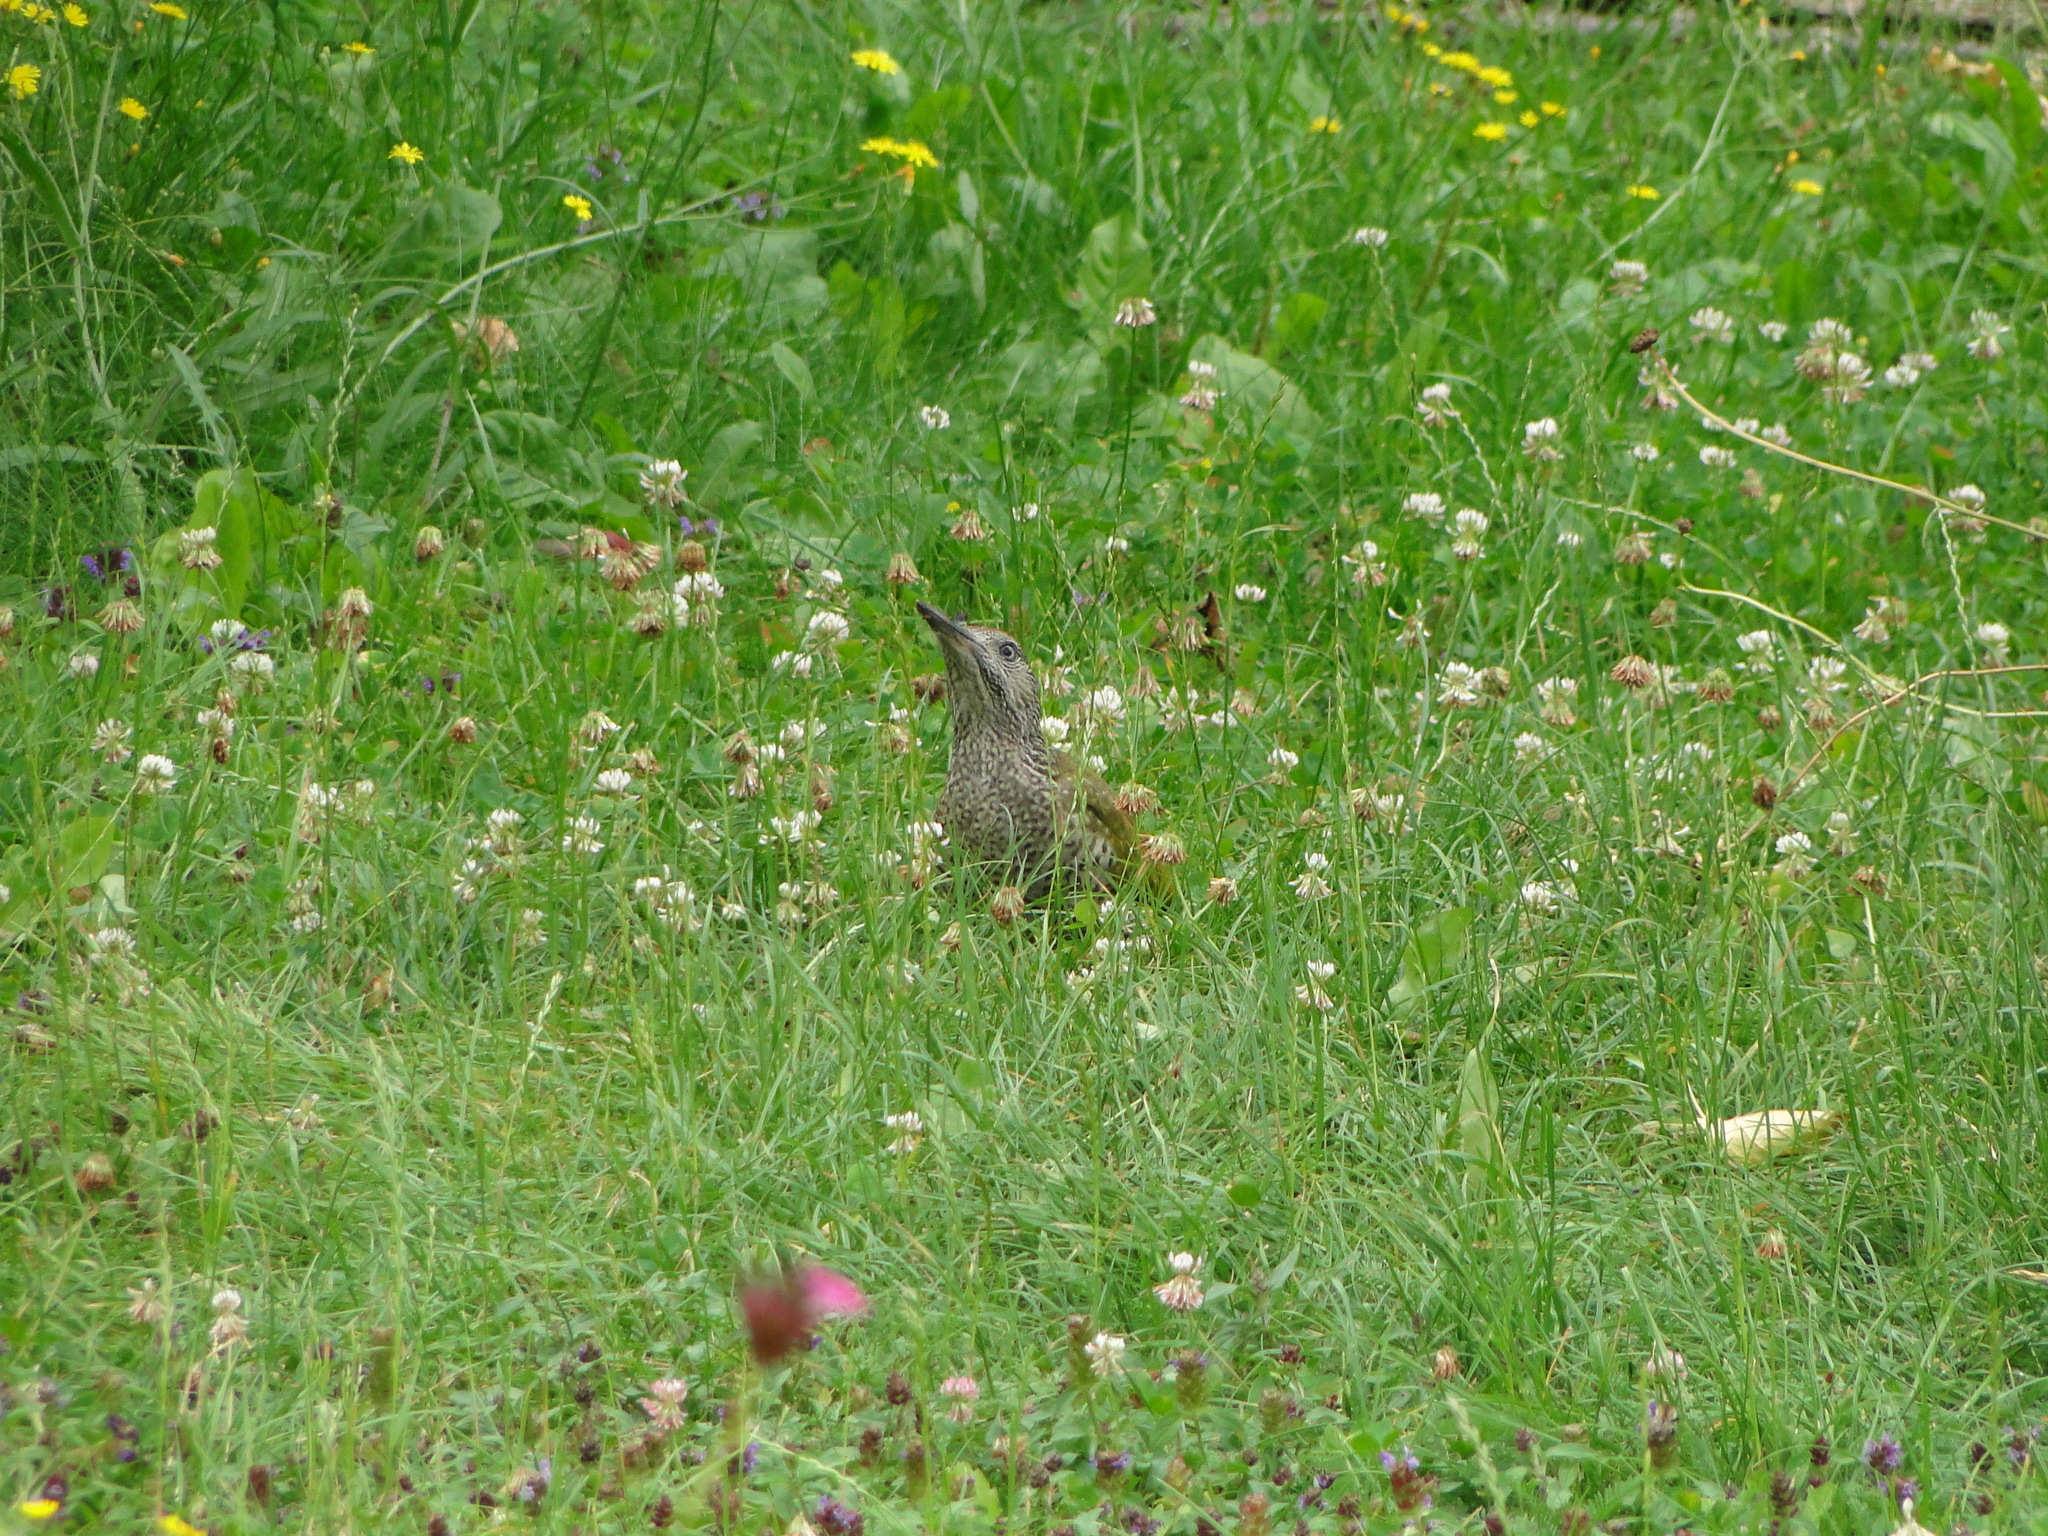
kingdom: Animalia
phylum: Chordata
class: Aves
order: Piciformes
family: Picidae
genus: Picus
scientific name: Picus viridis
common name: European green woodpecker
